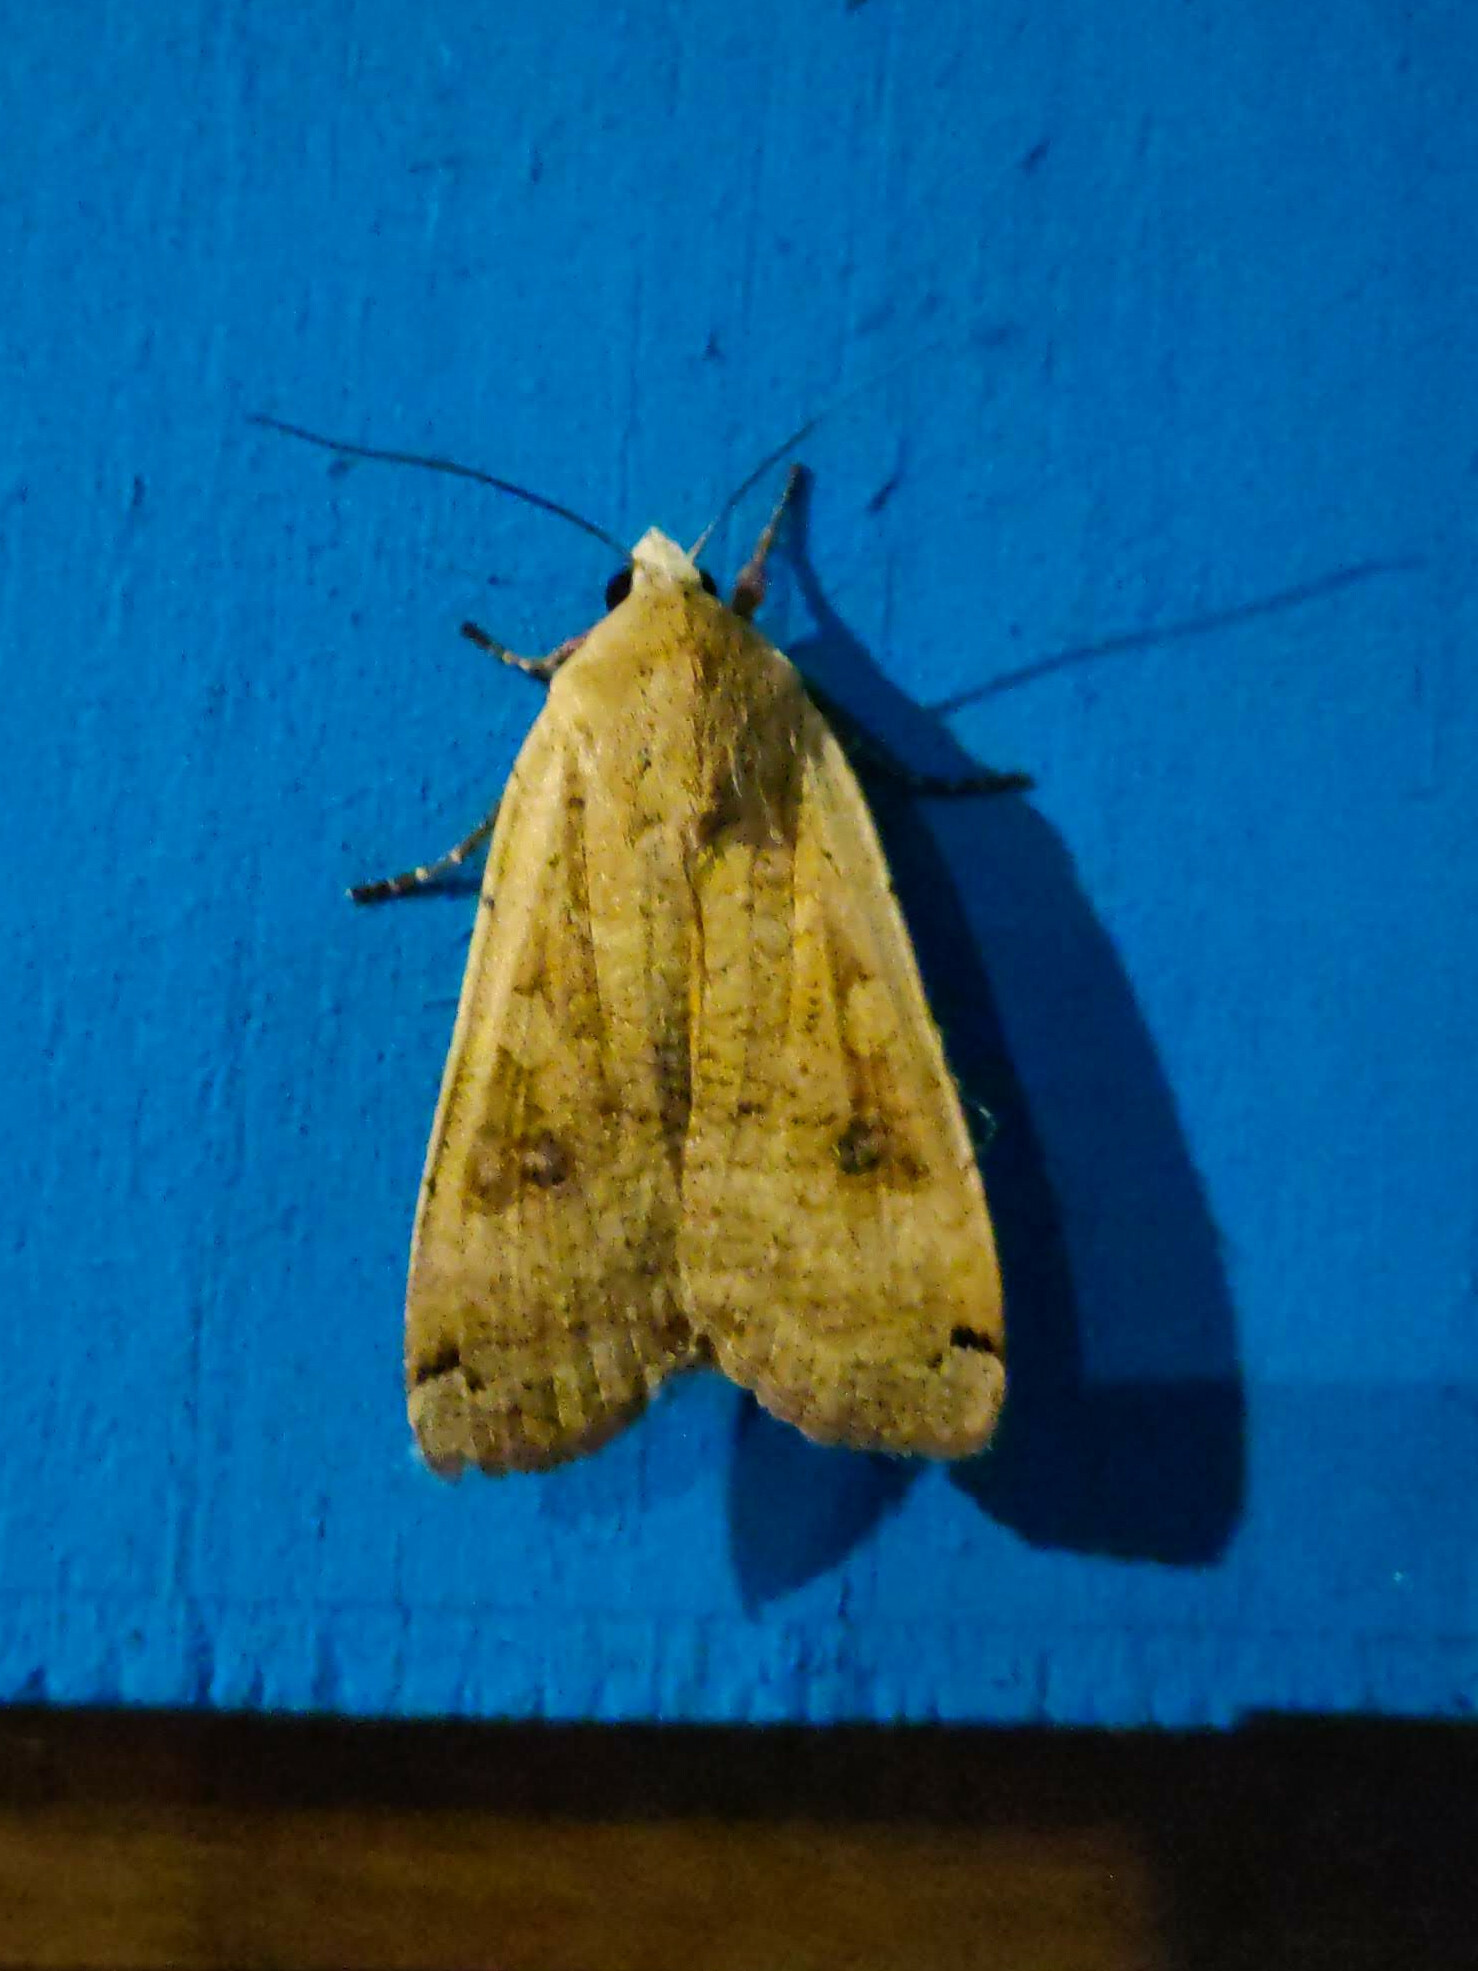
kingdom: Animalia
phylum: Arthropoda
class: Insecta
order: Lepidoptera
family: Noctuidae
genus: Noctua
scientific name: Noctua pronuba
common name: Large yellow underwing
